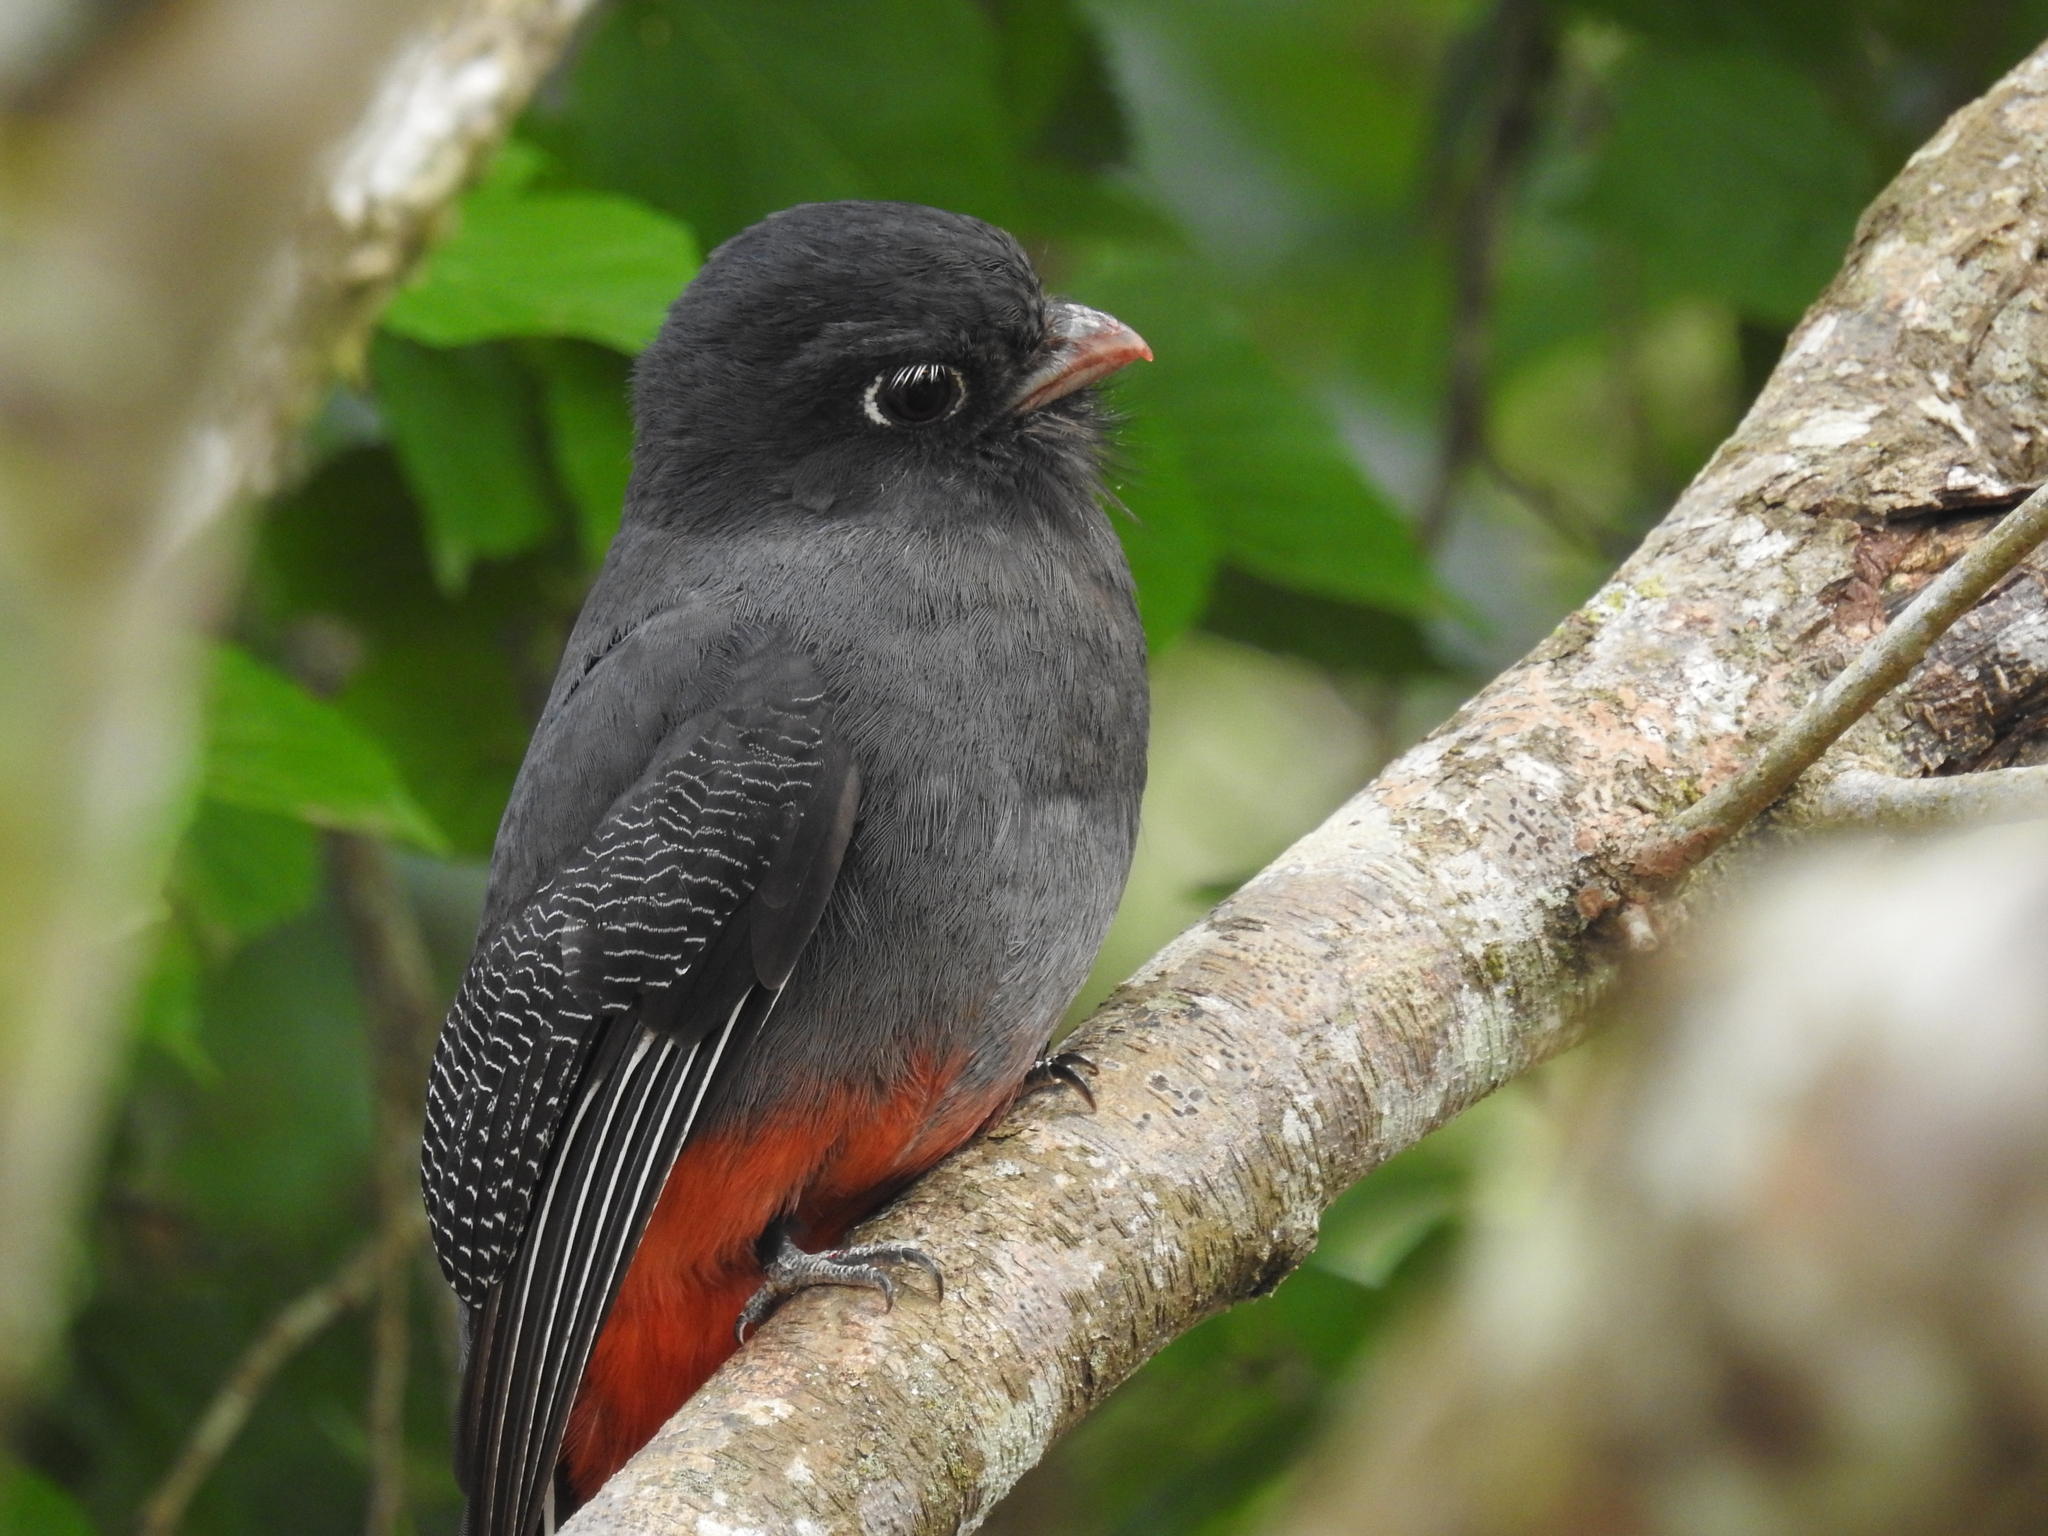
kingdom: Animalia
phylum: Chordata
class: Aves
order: Trogoniformes
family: Trogonidae
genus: Trogon
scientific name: Trogon surrucura
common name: Surucua trogon
